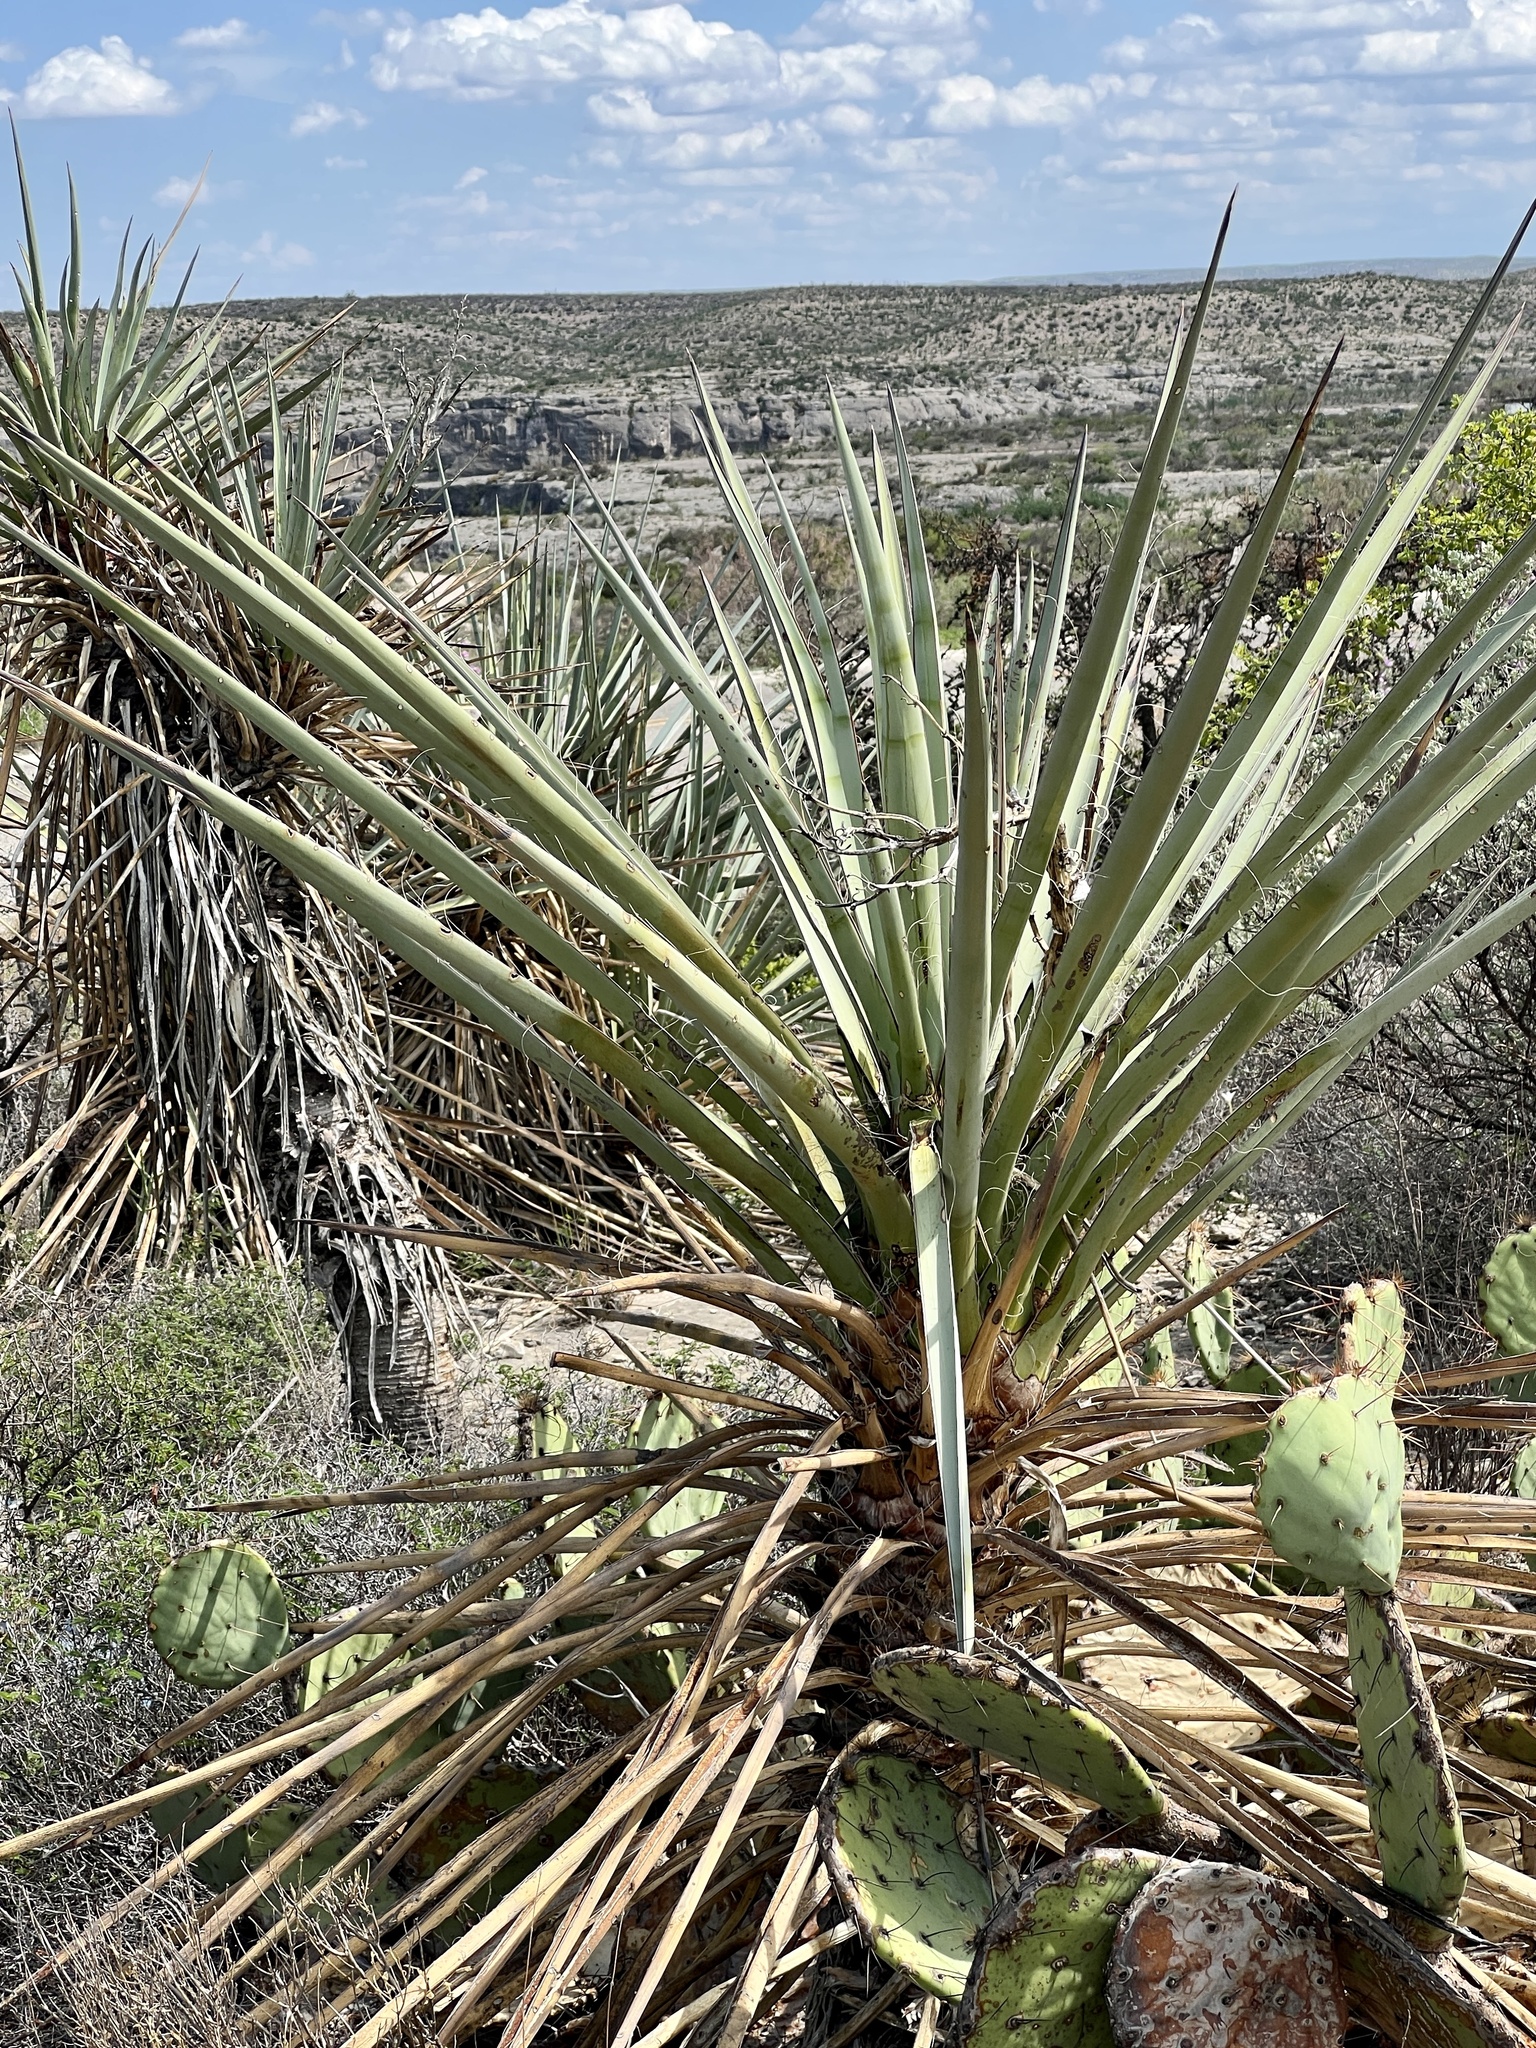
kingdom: Plantae
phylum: Tracheophyta
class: Liliopsida
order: Asparagales
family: Asparagaceae
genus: Yucca
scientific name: Yucca treculiana
